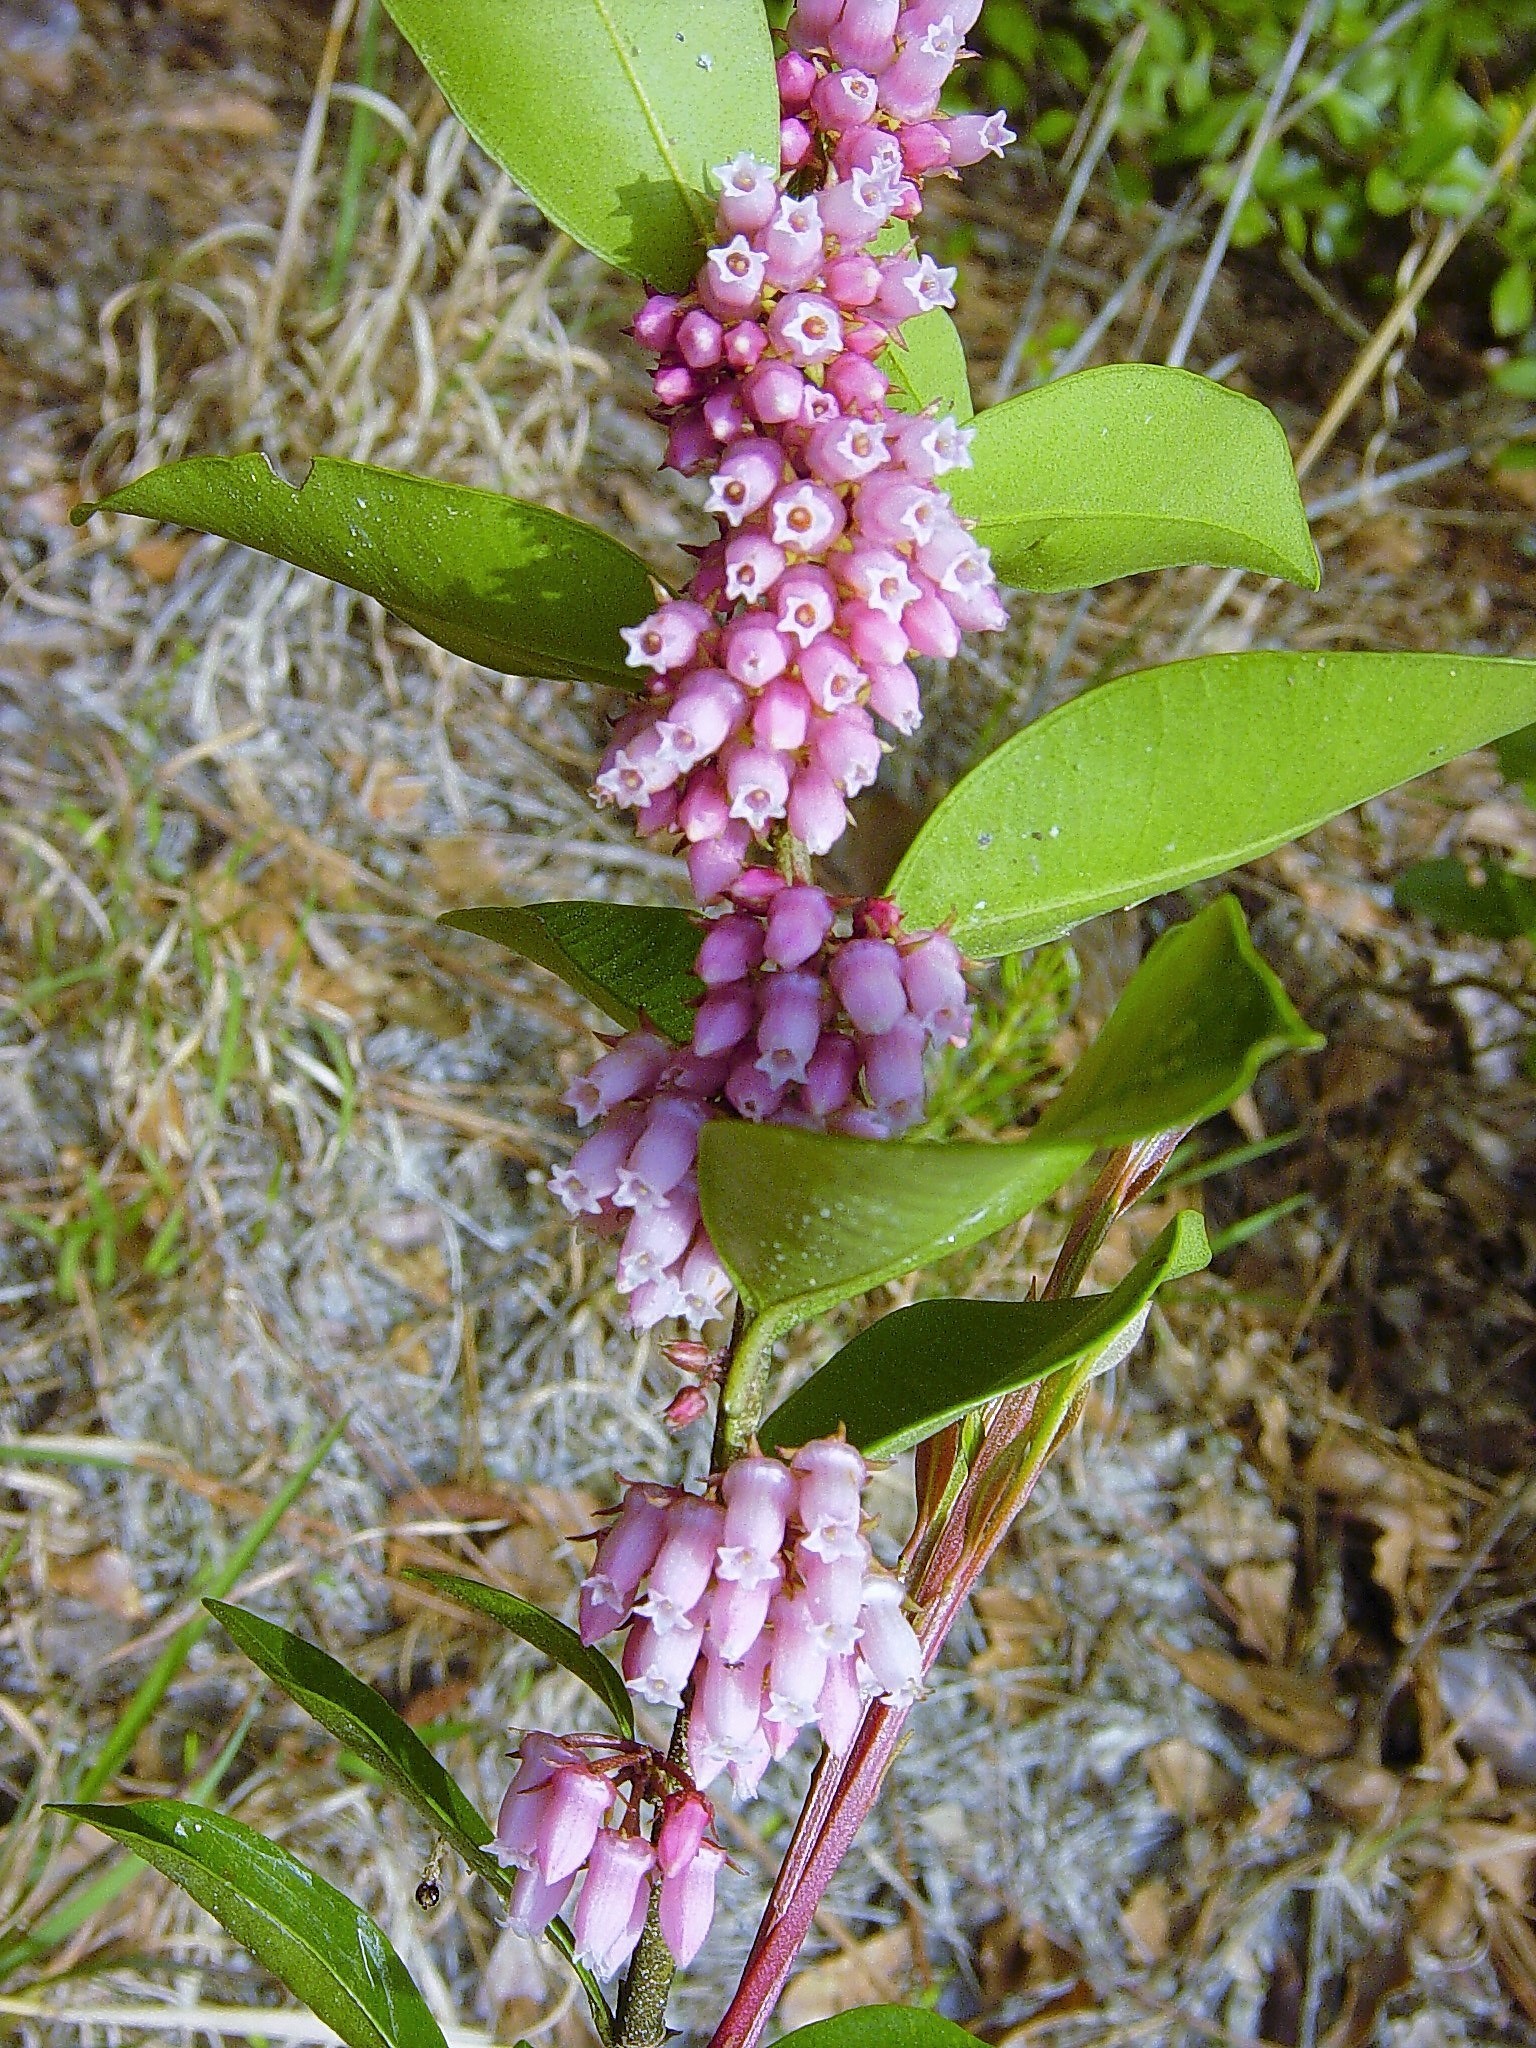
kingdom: Plantae
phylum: Tracheophyta
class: Magnoliopsida
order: Ericales
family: Ericaceae
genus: Lyonia
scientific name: Lyonia lucida
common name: Fetterbush
